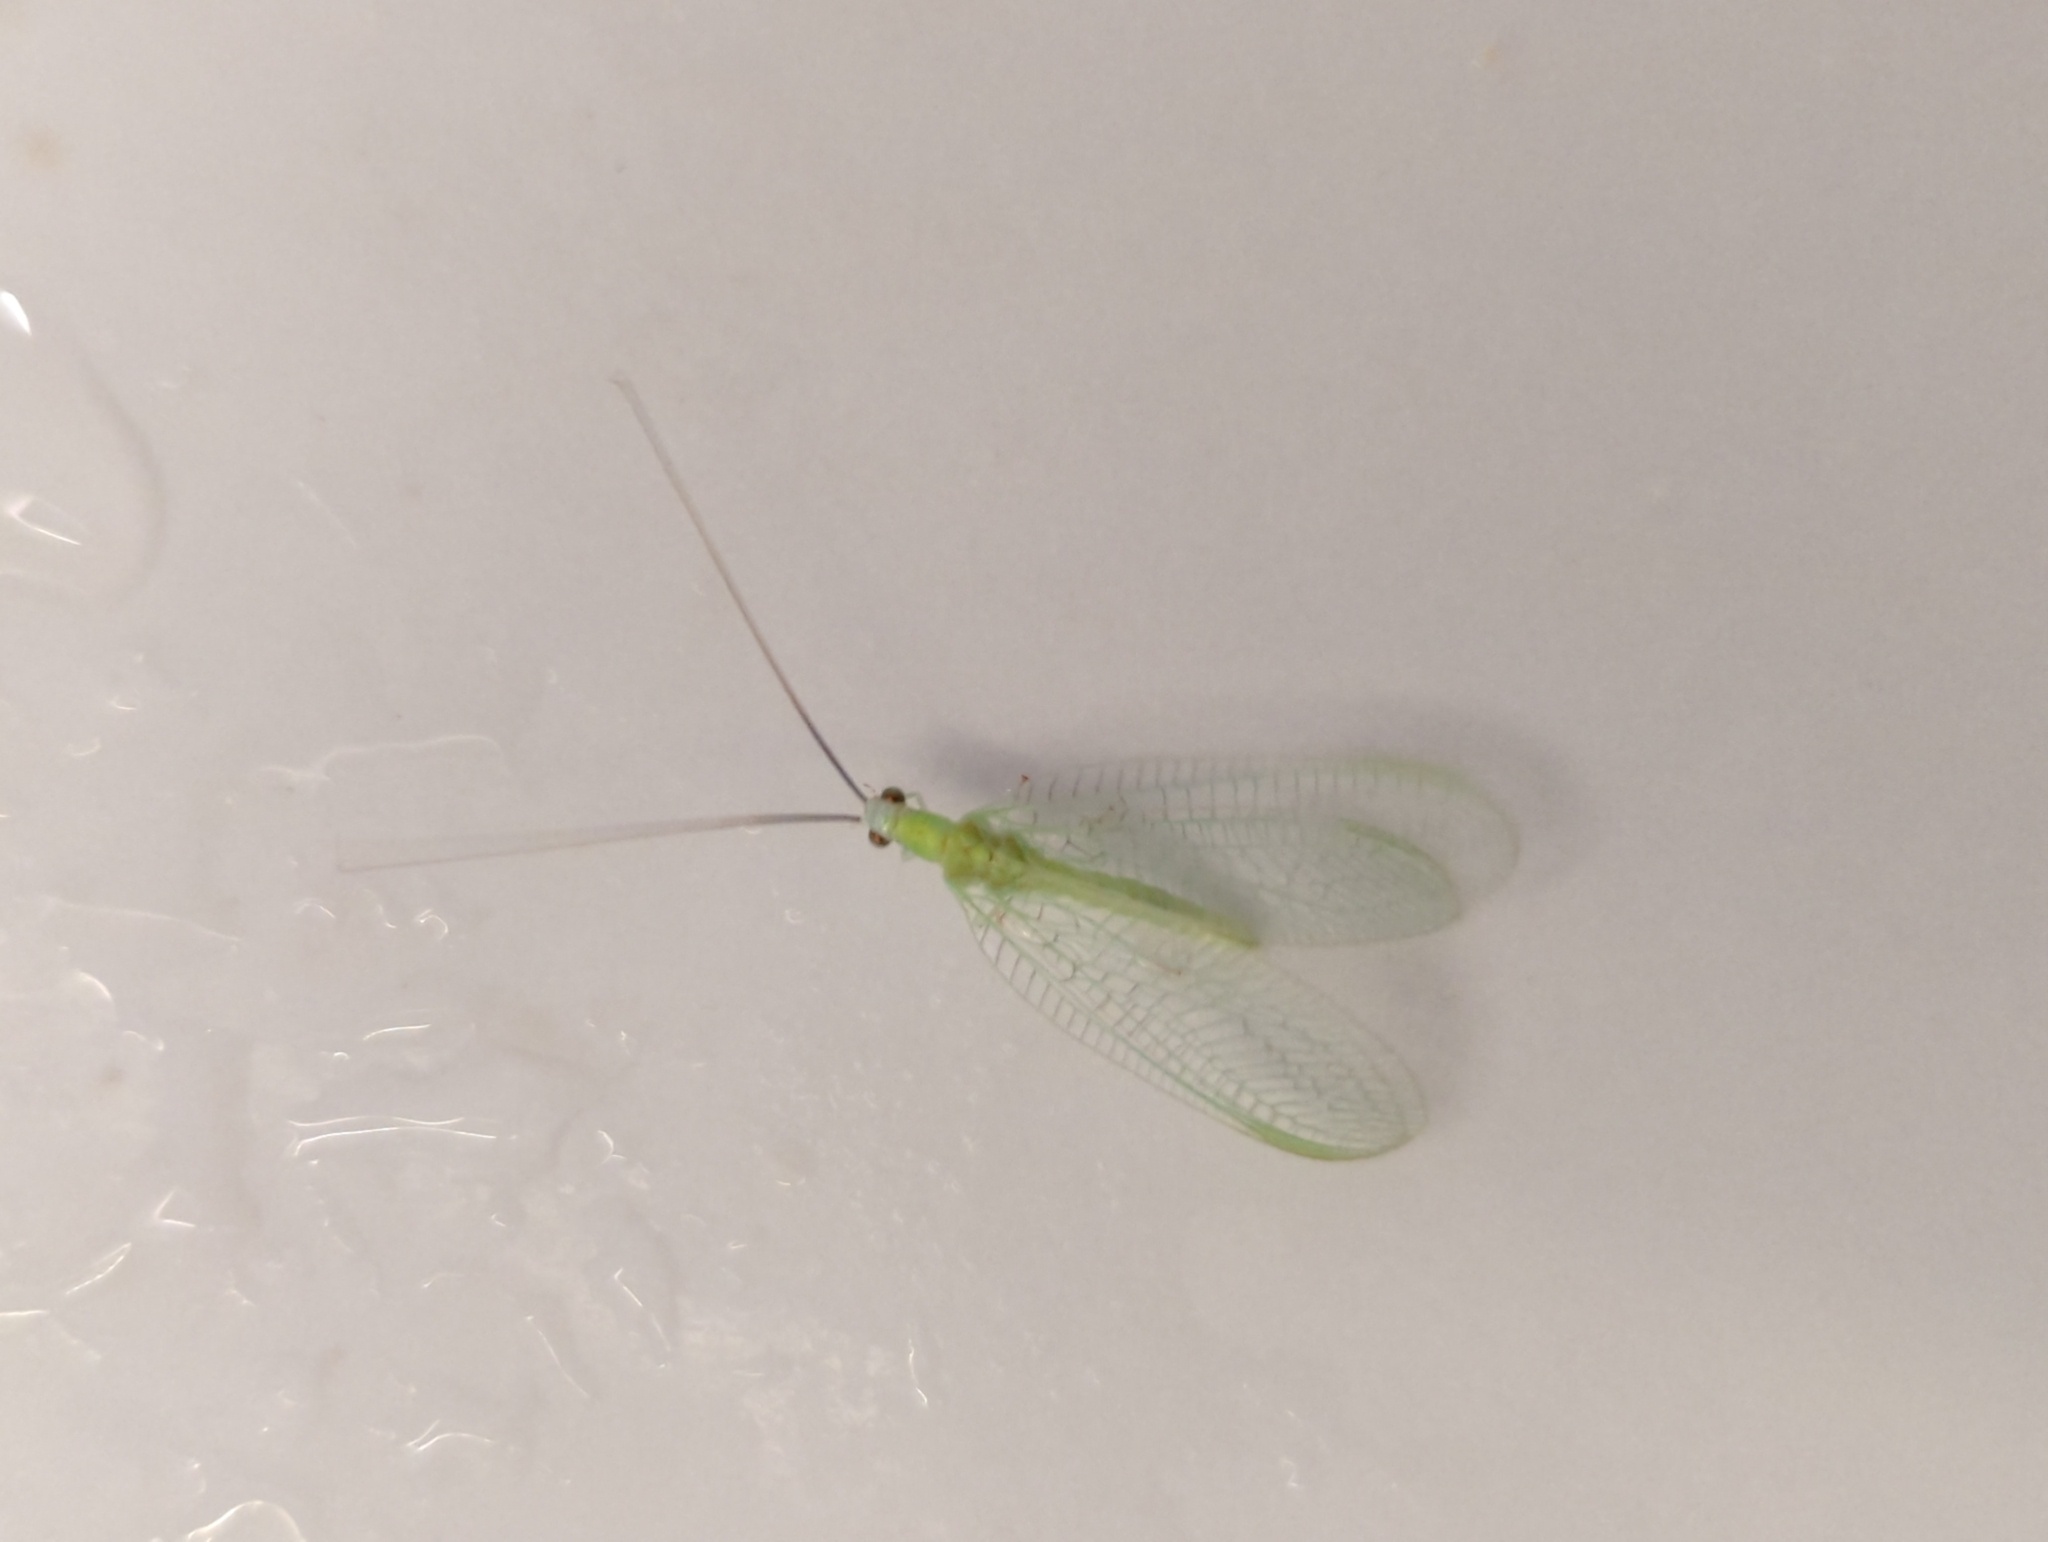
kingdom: Animalia
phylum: Arthropoda
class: Insecta
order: Neuroptera
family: Chrysopidae
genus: Chrysopa
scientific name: Chrysopa nigricornis
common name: Black-horned green lacewing
